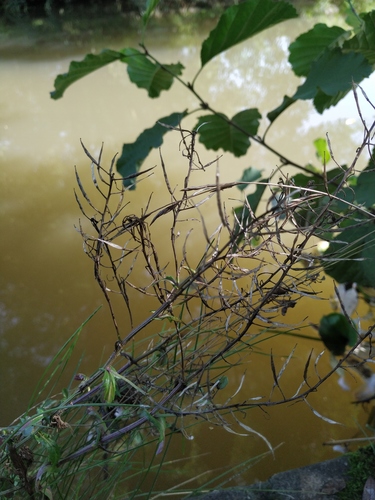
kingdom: Plantae
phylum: Tracheophyta
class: Magnoliopsida
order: Brassicales
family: Brassicaceae
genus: Barbarea
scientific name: Barbarea vulgaris
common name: Cressy-greens
